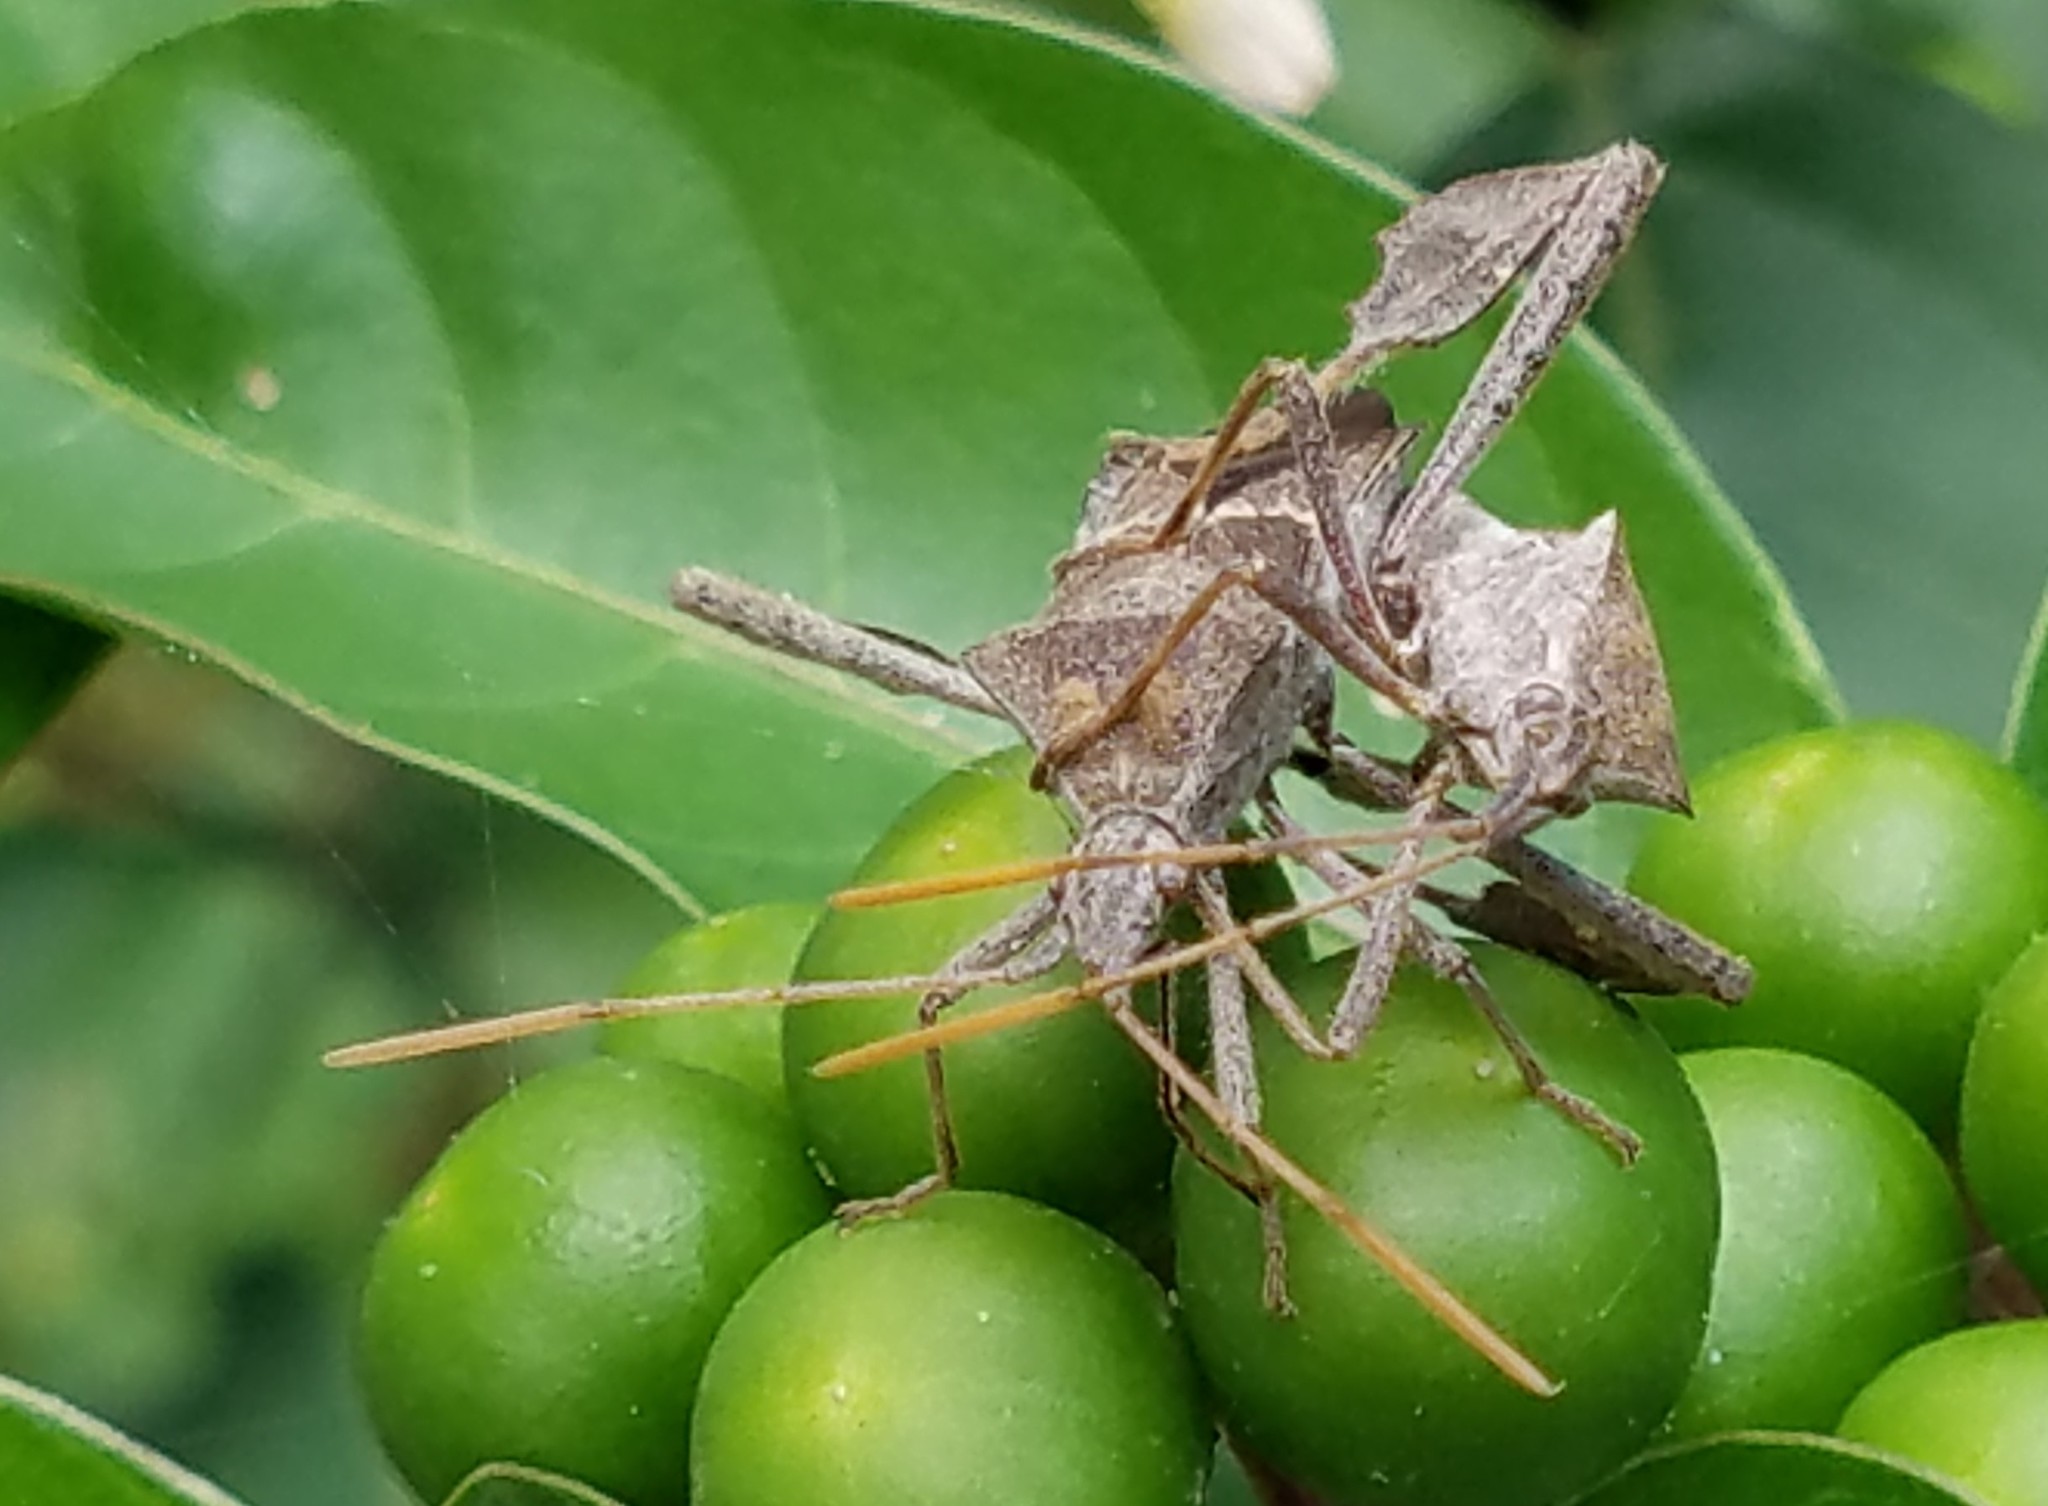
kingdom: Animalia
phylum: Arthropoda
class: Insecta
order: Hemiptera
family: Coreidae
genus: Leptoglossus
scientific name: Leptoglossus zonatus
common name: Large-legged bug
